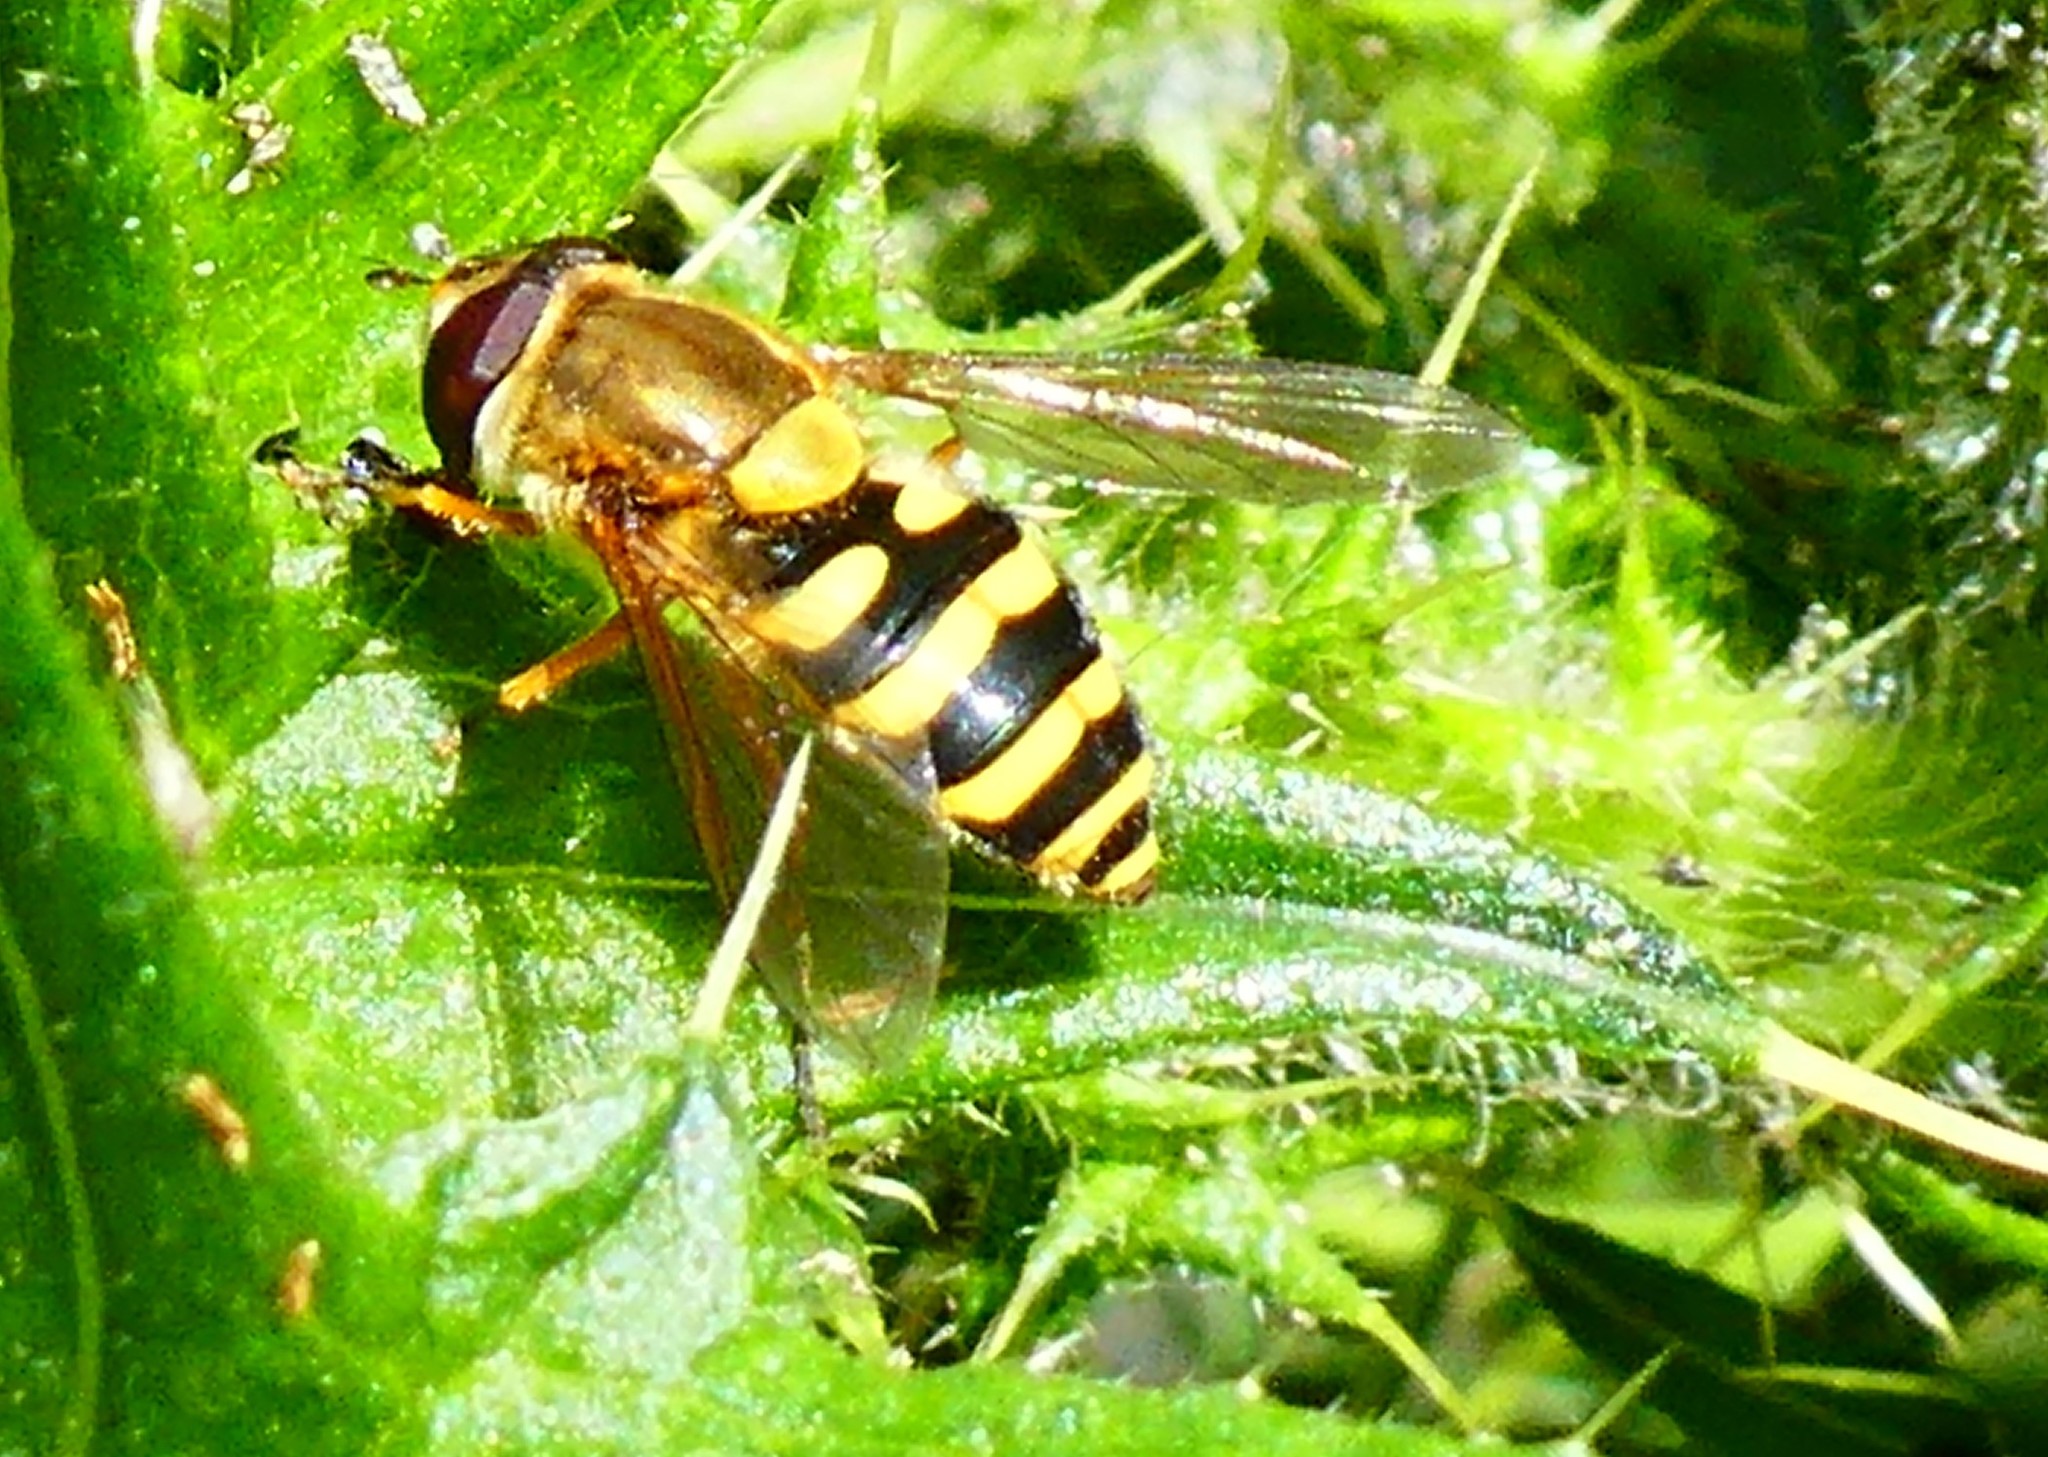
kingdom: Animalia
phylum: Arthropoda
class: Insecta
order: Diptera
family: Syrphidae
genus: Syrphus
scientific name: Syrphus ribesii
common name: Common flower fly
